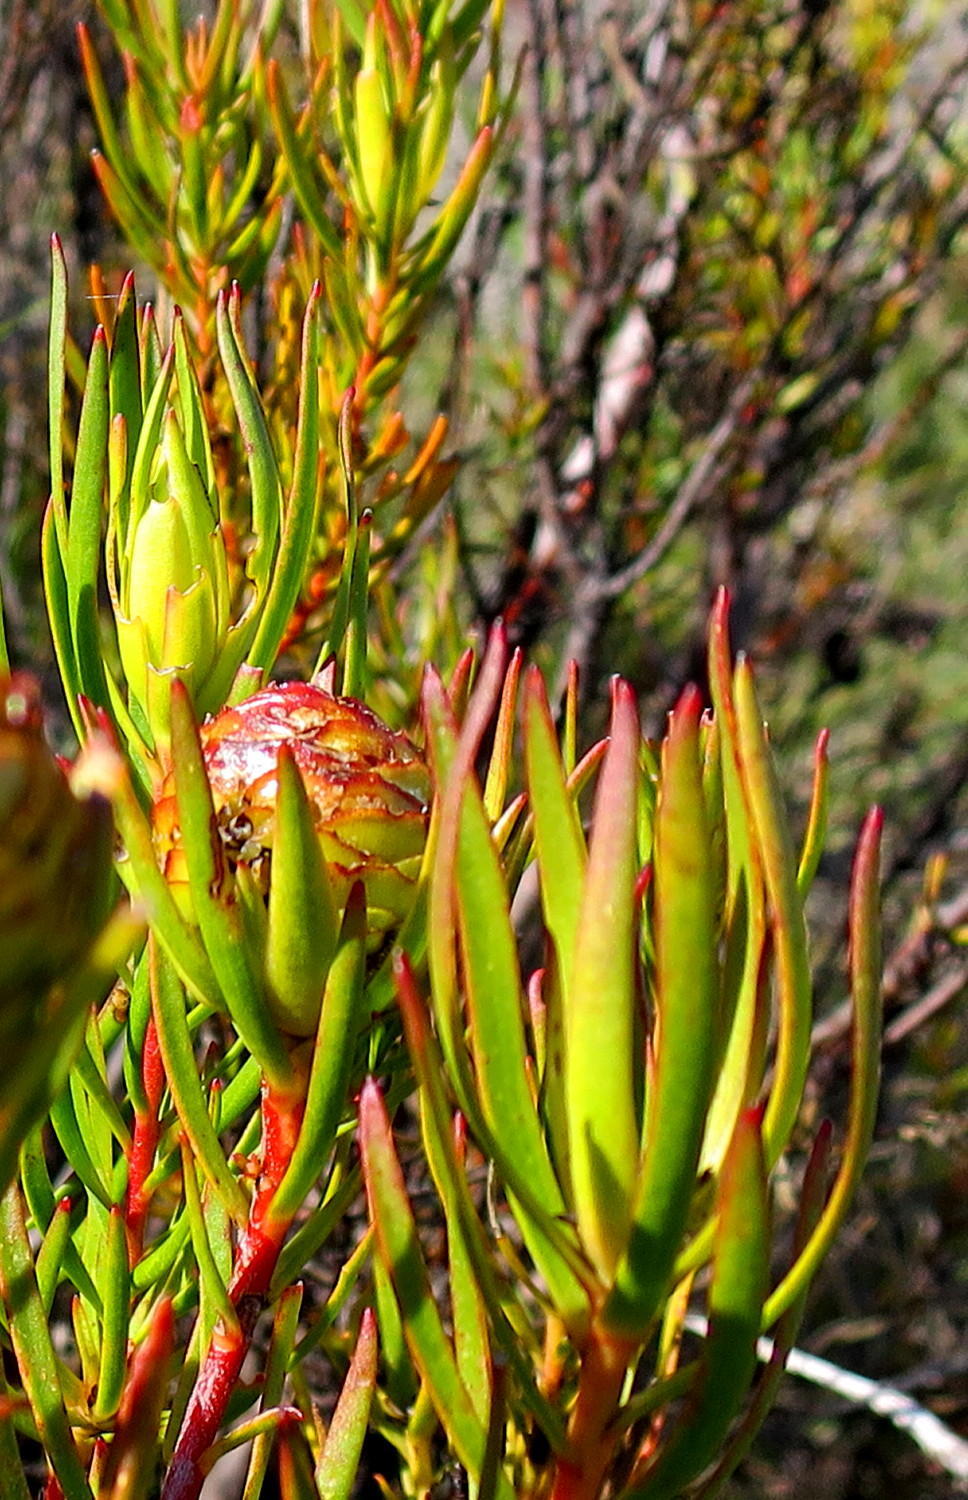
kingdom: Plantae
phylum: Tracheophyta
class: Magnoliopsida
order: Proteales
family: Proteaceae
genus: Leucadendron
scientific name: Leucadendron spissifolium
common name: Spear-leaf conebush
